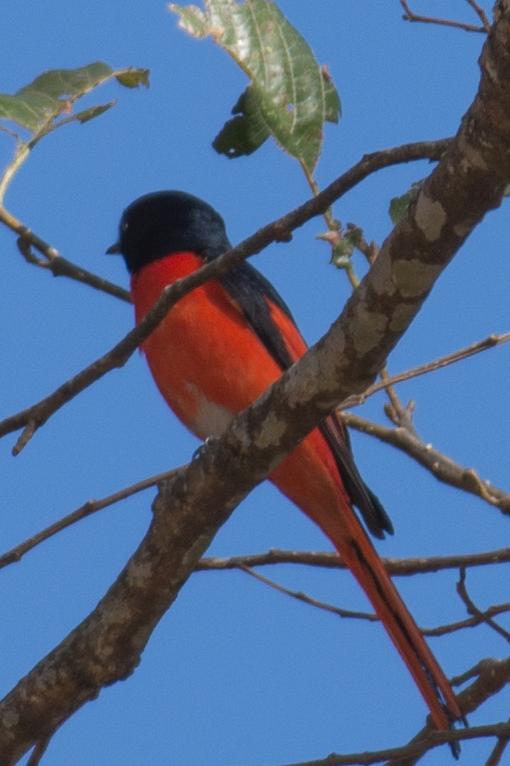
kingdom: Animalia
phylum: Chordata
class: Aves
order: Passeriformes
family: Campephagidae
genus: Pericrocotus
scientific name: Pericrocotus ethologus
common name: Long-tailed minivet
